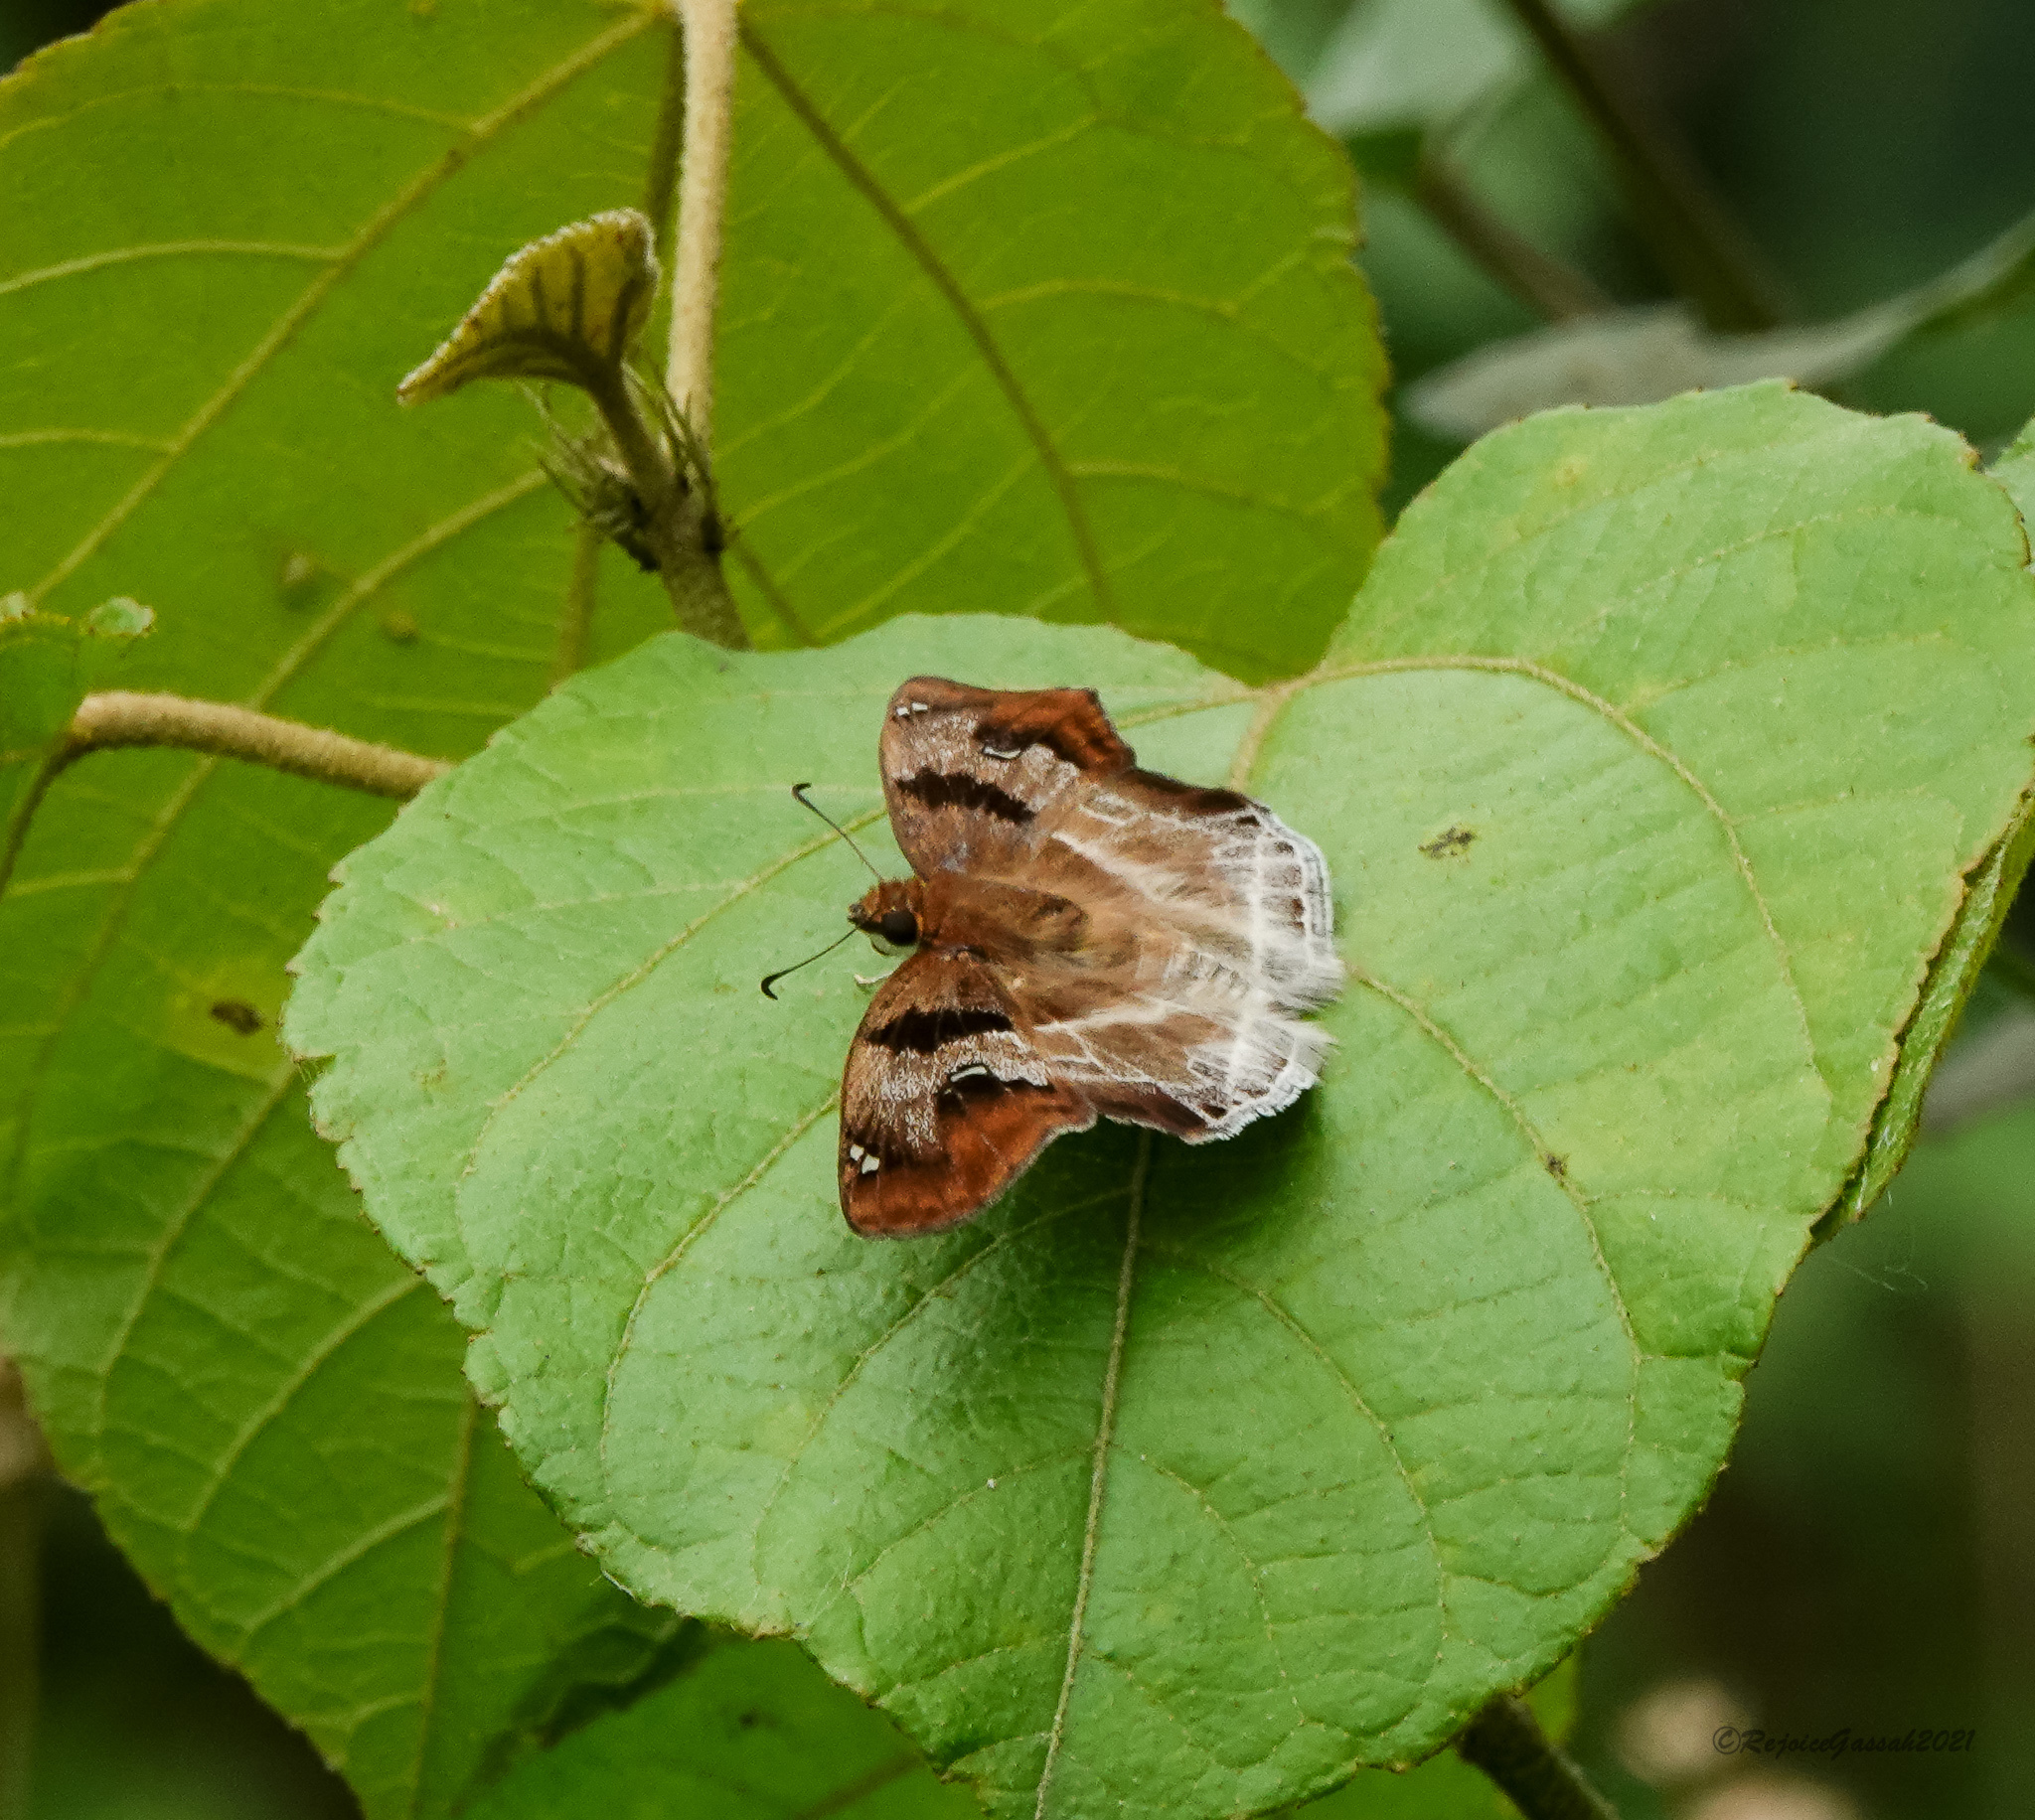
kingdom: Animalia
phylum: Arthropoda
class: Insecta
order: Lepidoptera
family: Hesperiidae
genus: Odontoptilum
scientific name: Odontoptilum angulata
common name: Chestnut banded angle
